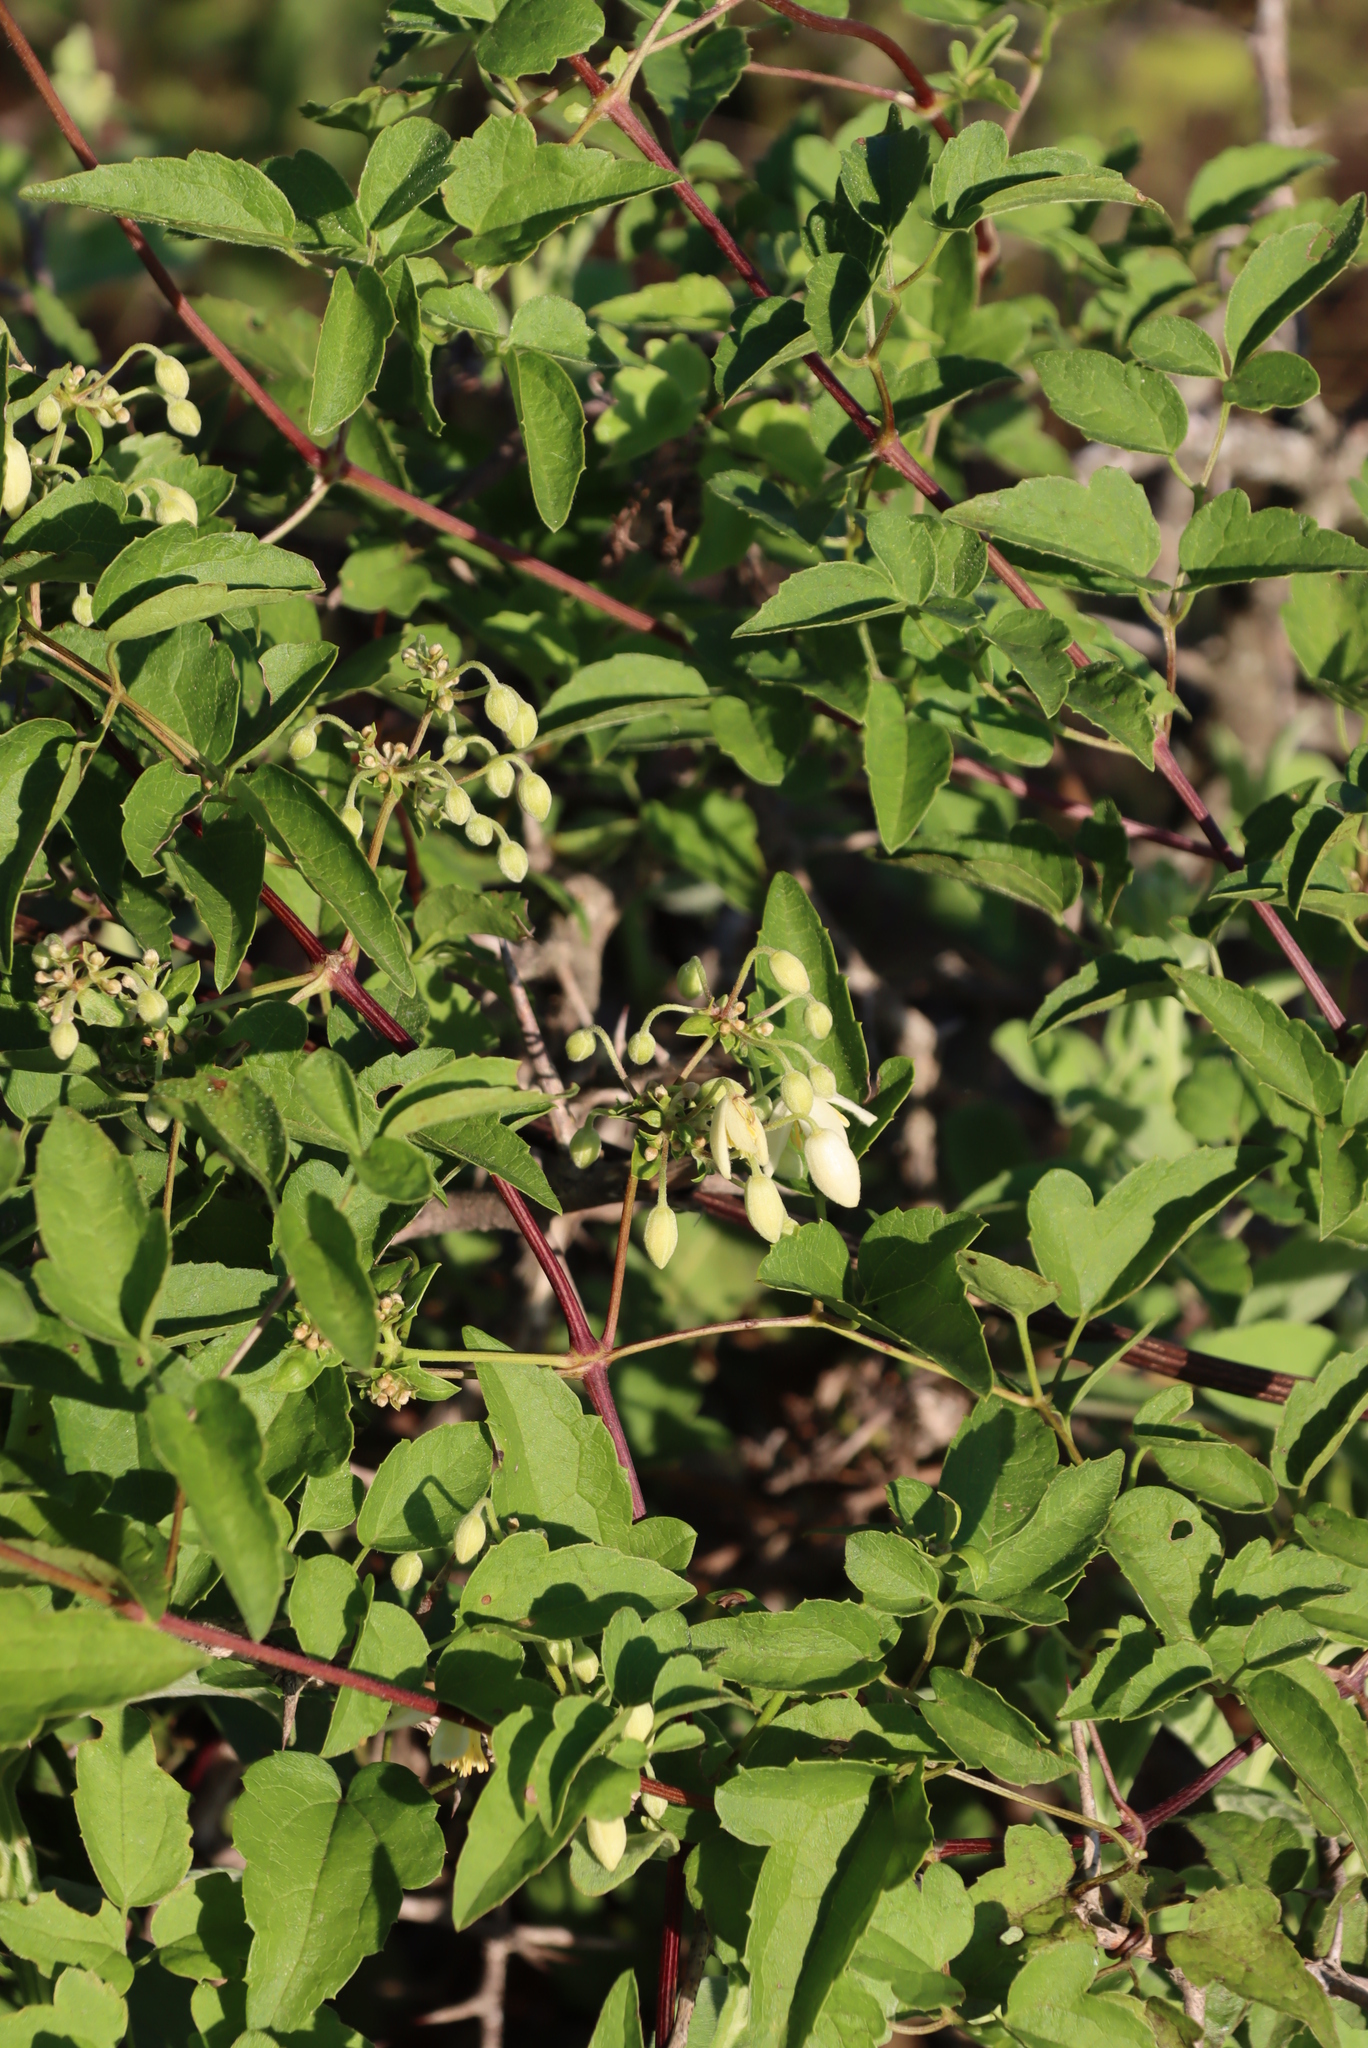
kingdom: Plantae
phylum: Tracheophyta
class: Magnoliopsida
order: Ranunculales
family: Ranunculaceae
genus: Clematis
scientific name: Clematis brachiata
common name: Traveler's-joy
